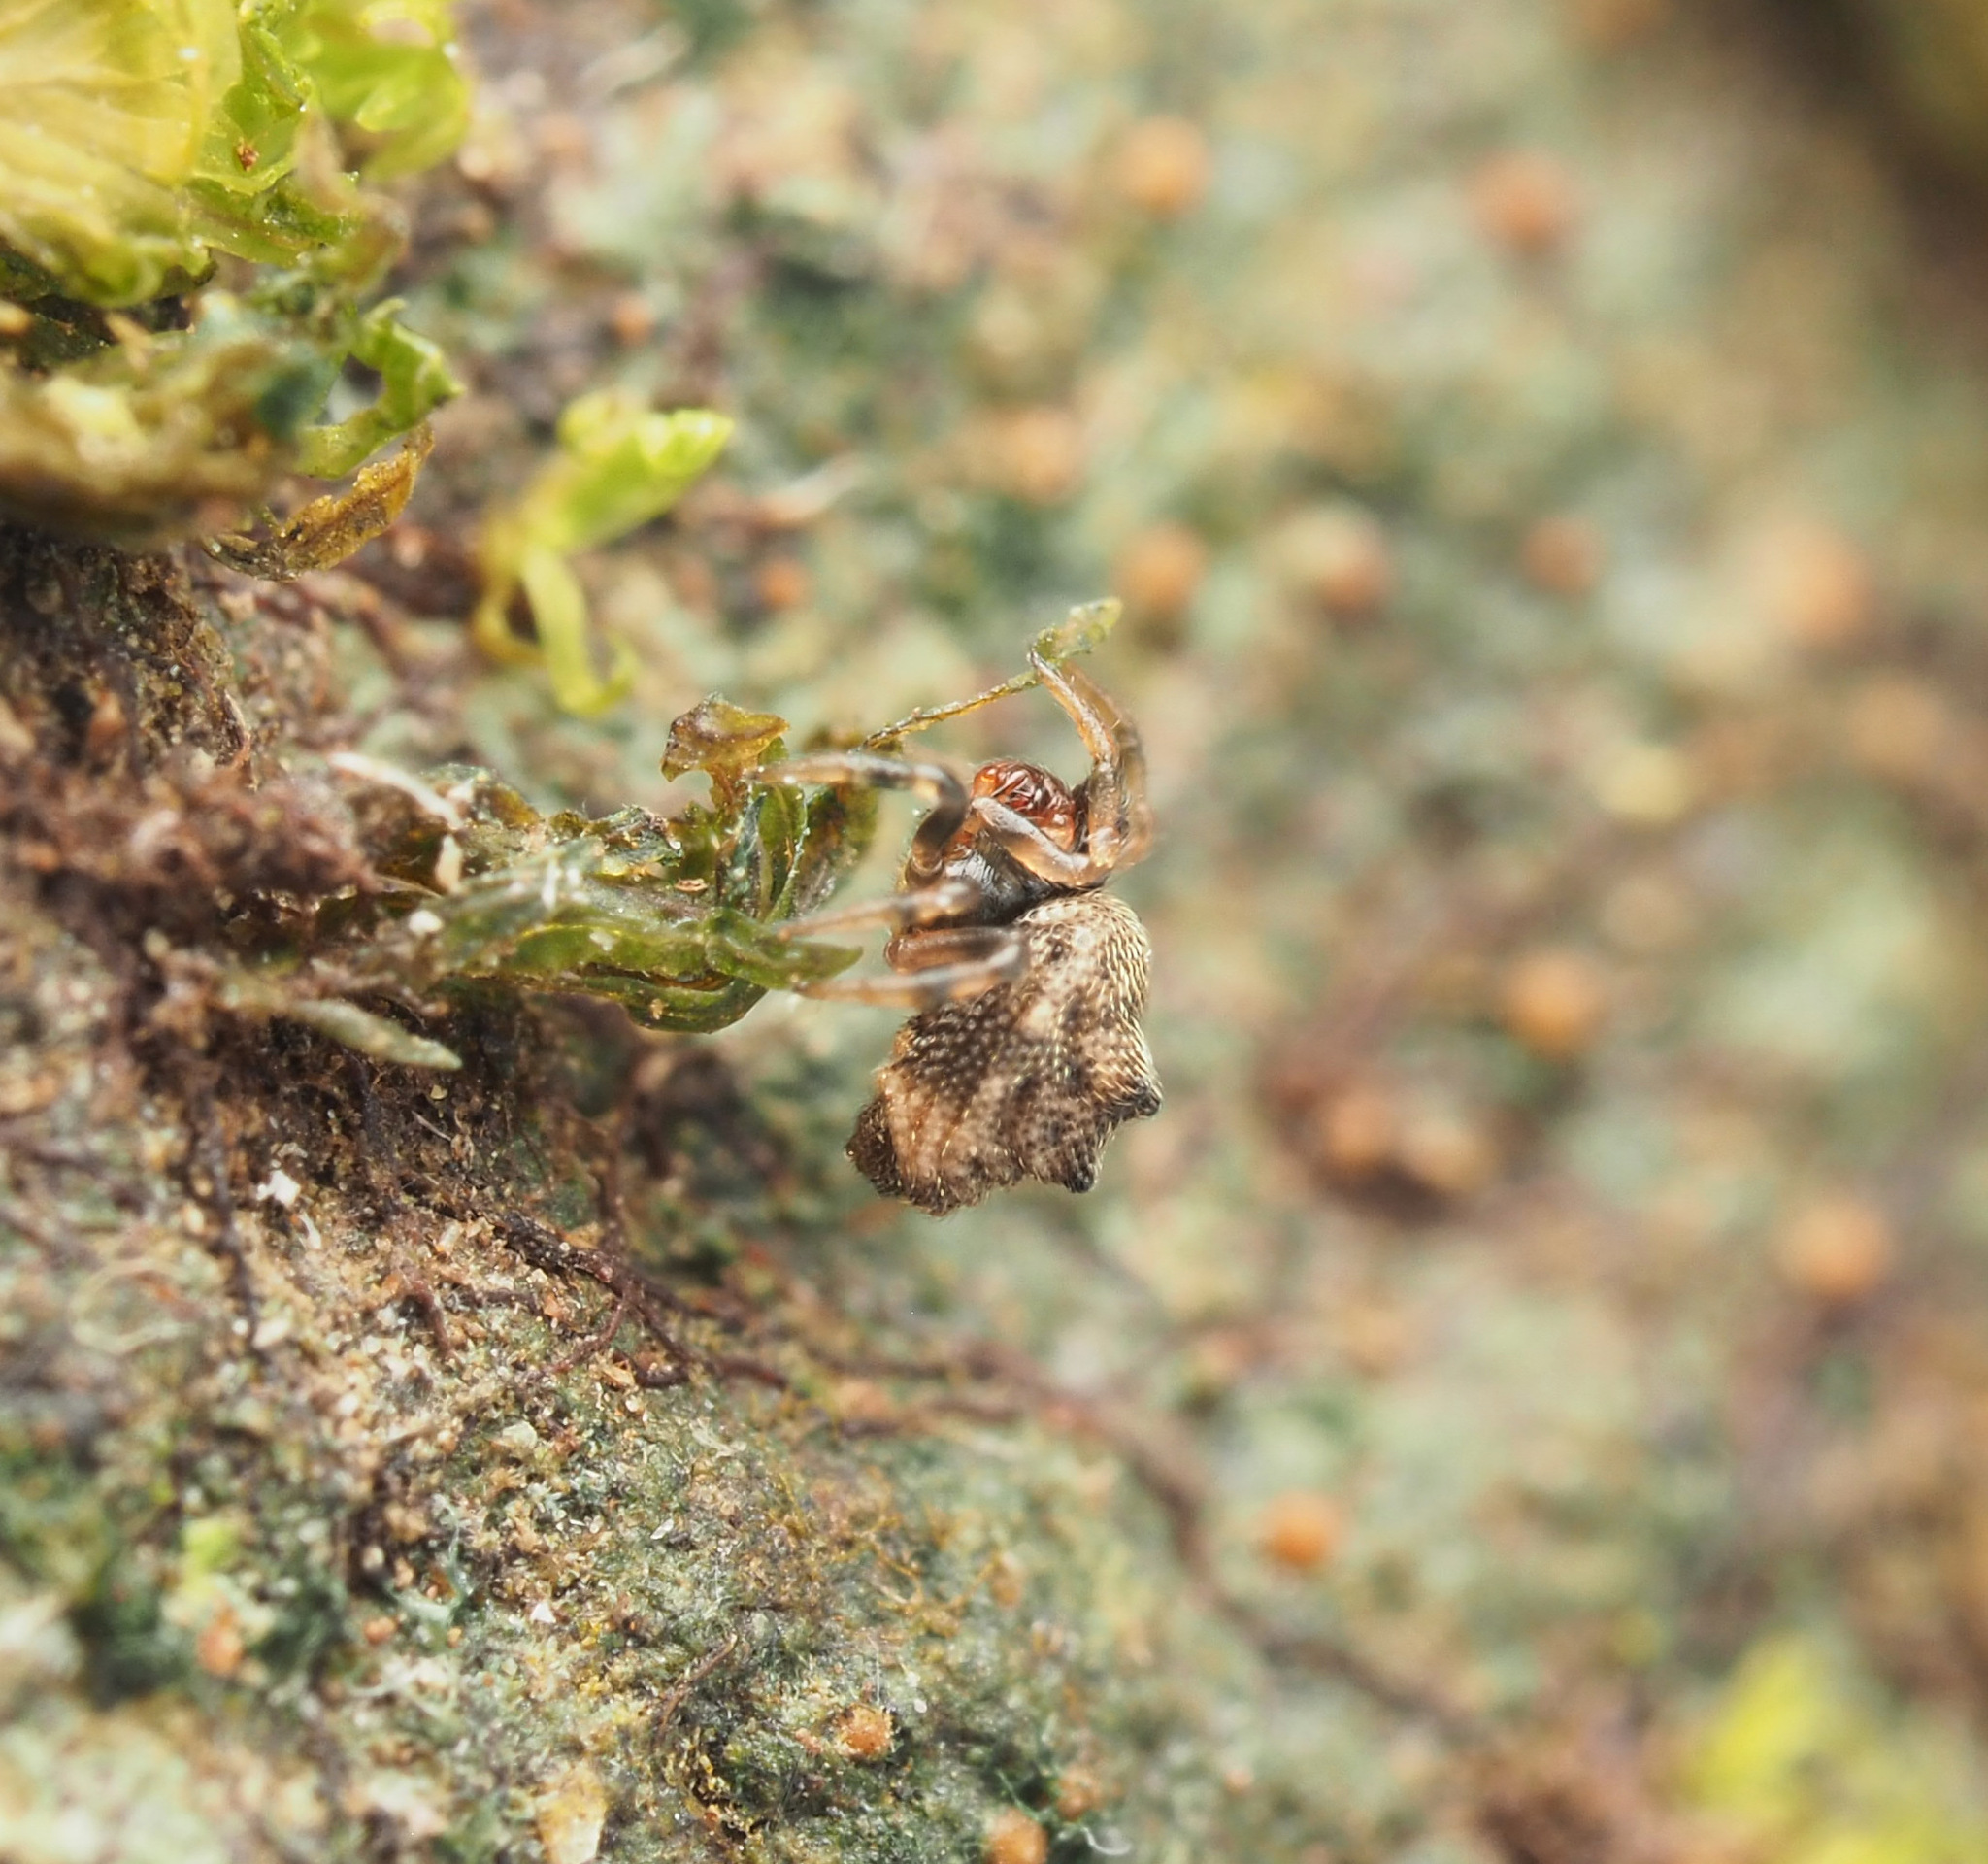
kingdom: Animalia
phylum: Arthropoda
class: Arachnida
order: Araneae
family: Theridiidae
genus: Phoroncidia
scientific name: Phoroncidia trituberculata
